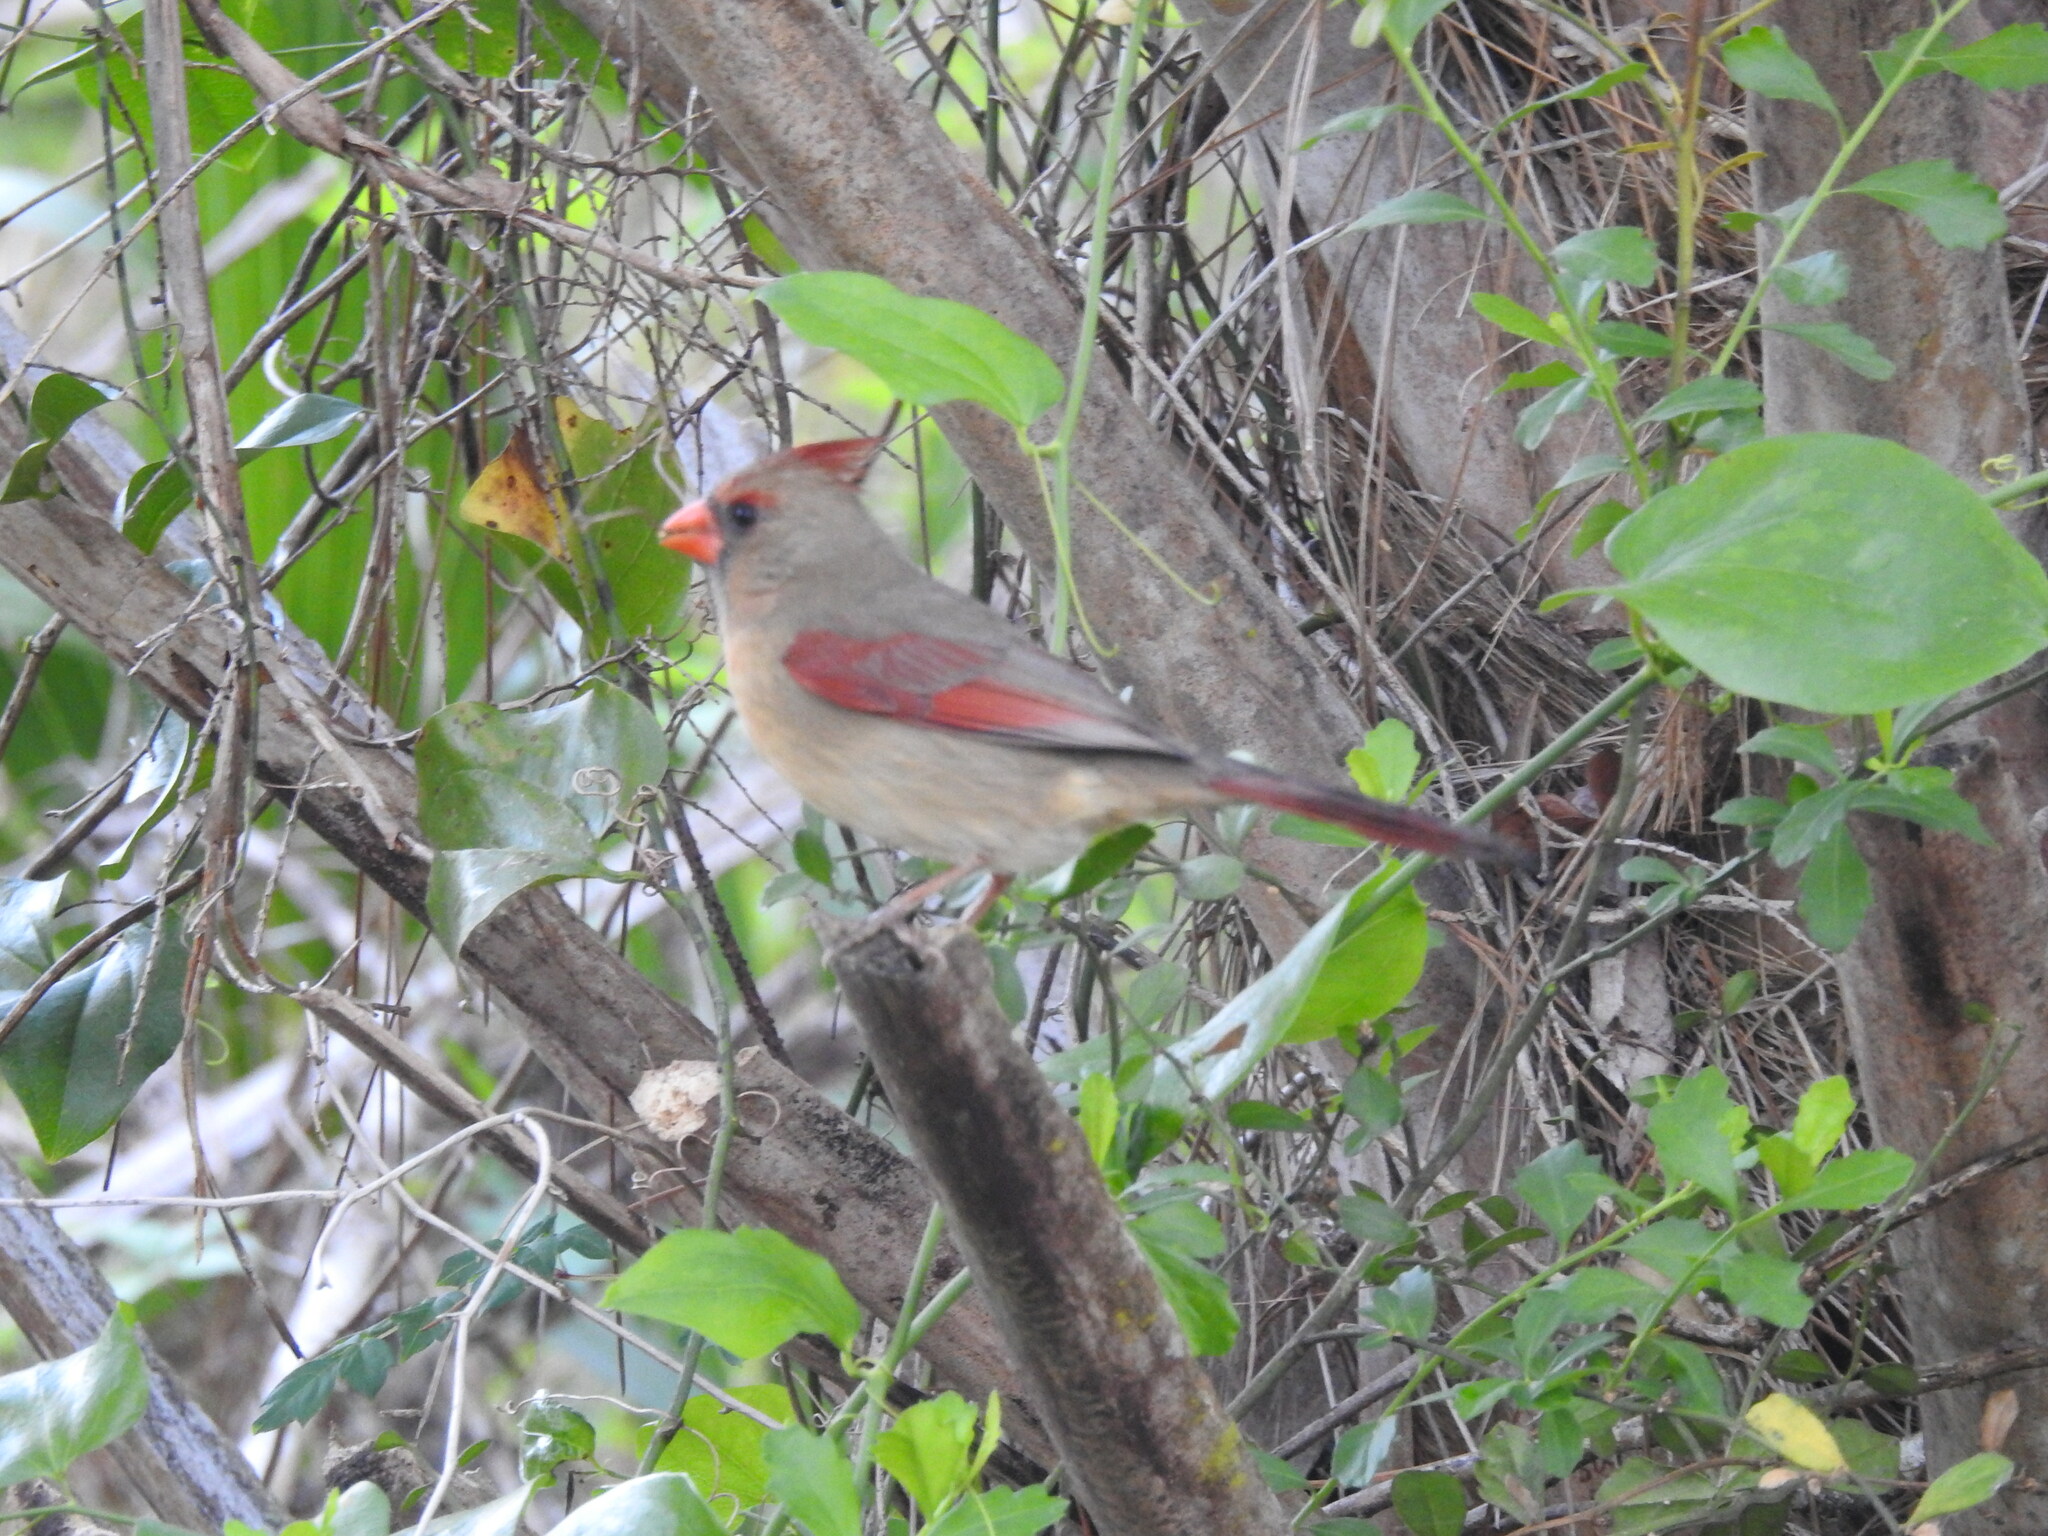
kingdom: Animalia
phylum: Chordata
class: Aves
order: Passeriformes
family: Cardinalidae
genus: Cardinalis
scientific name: Cardinalis cardinalis
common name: Northern cardinal
